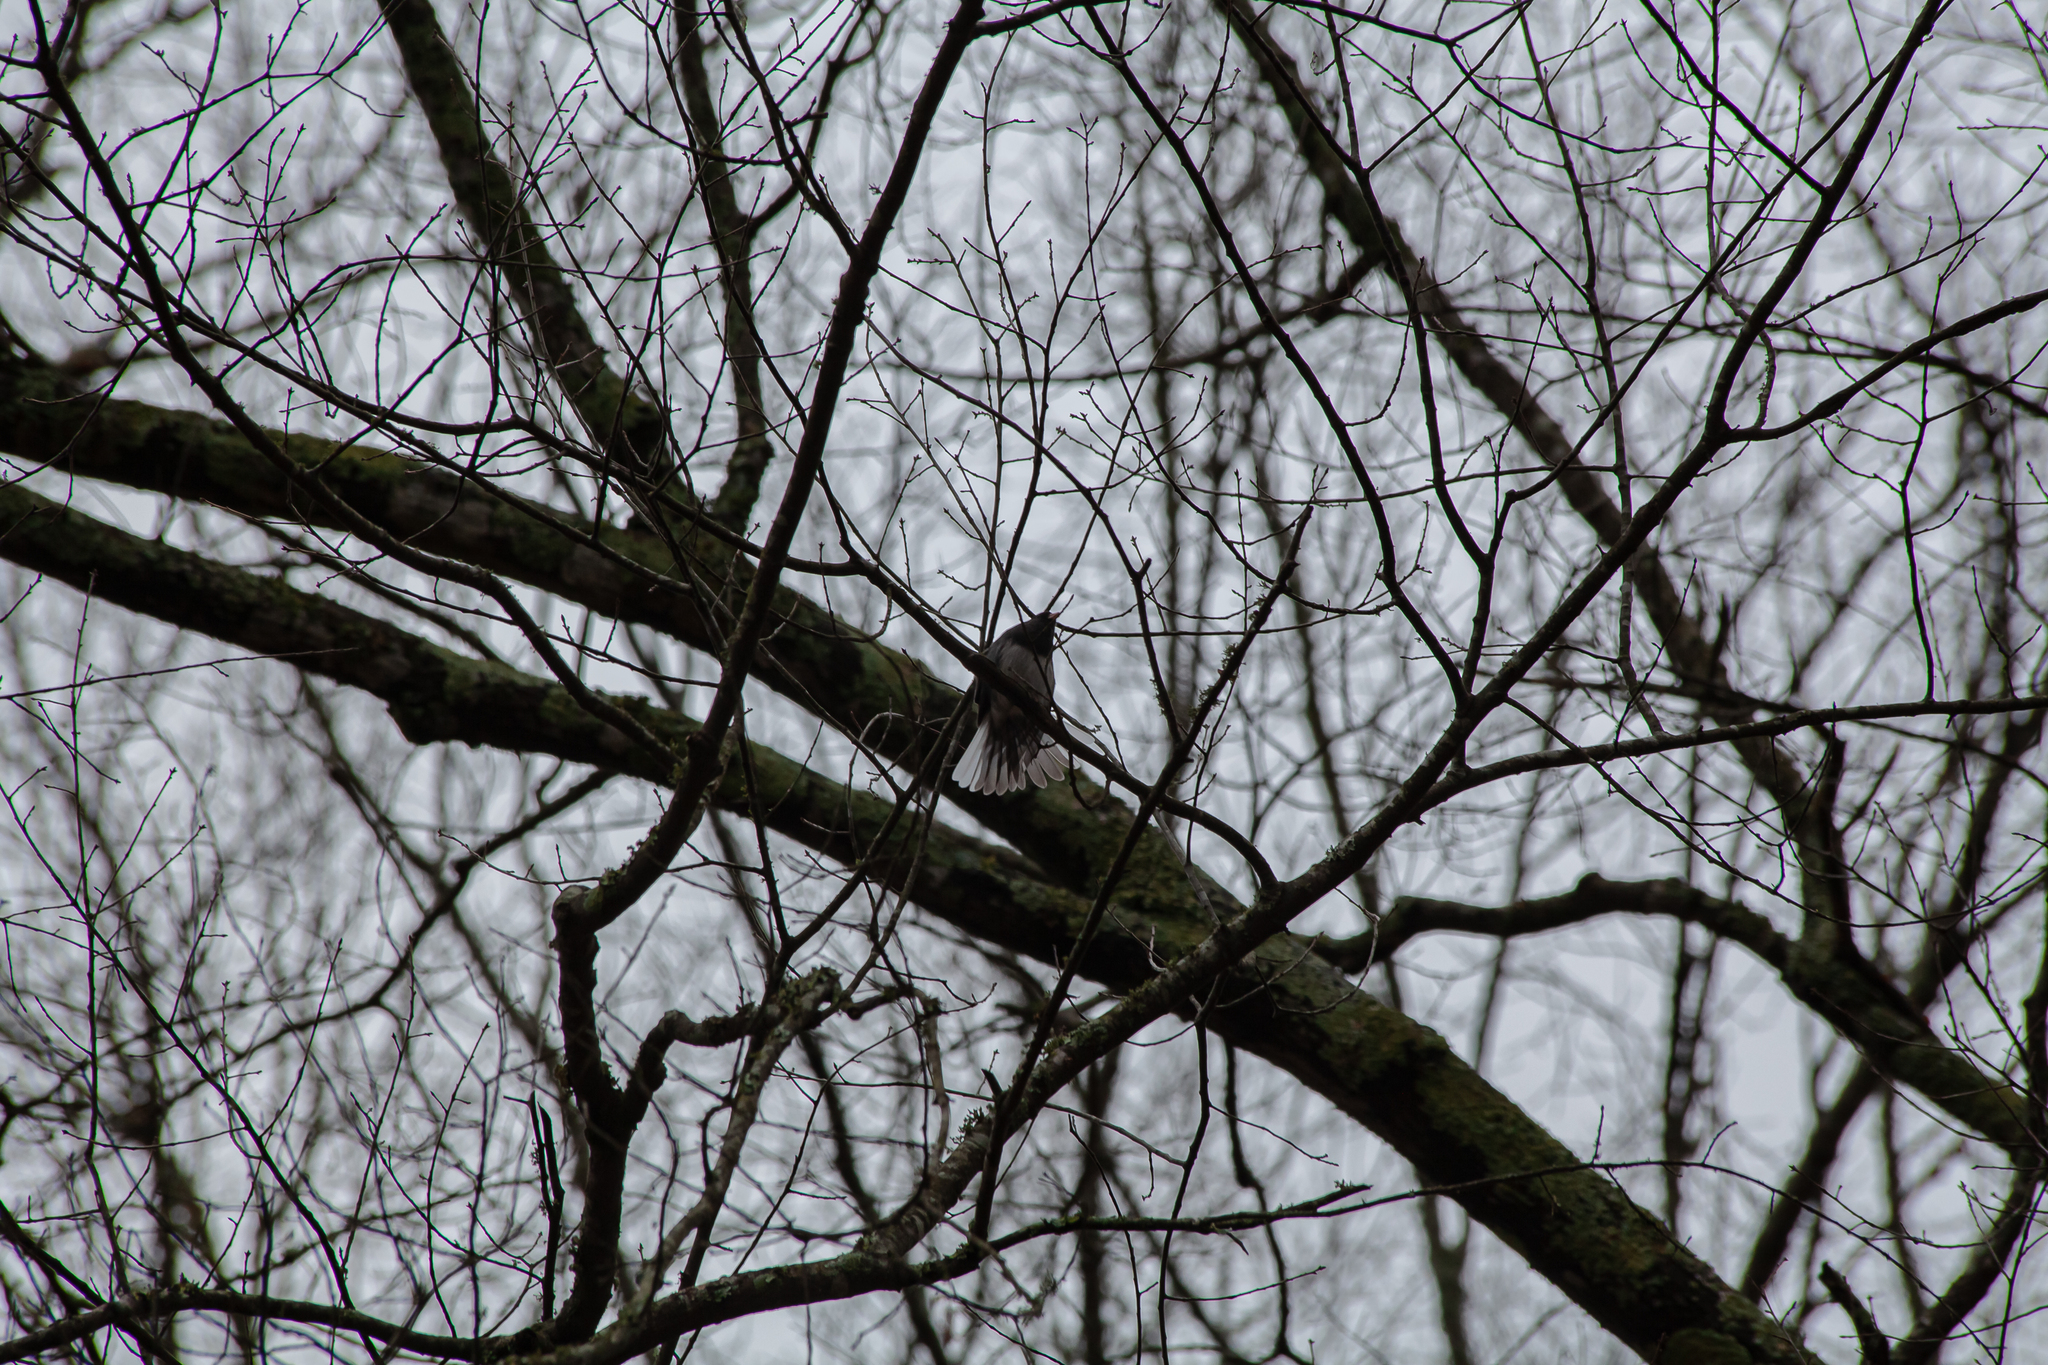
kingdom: Animalia
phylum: Chordata
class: Aves
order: Passeriformes
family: Passerellidae
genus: Junco
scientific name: Junco hyemalis
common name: Dark-eyed junco
